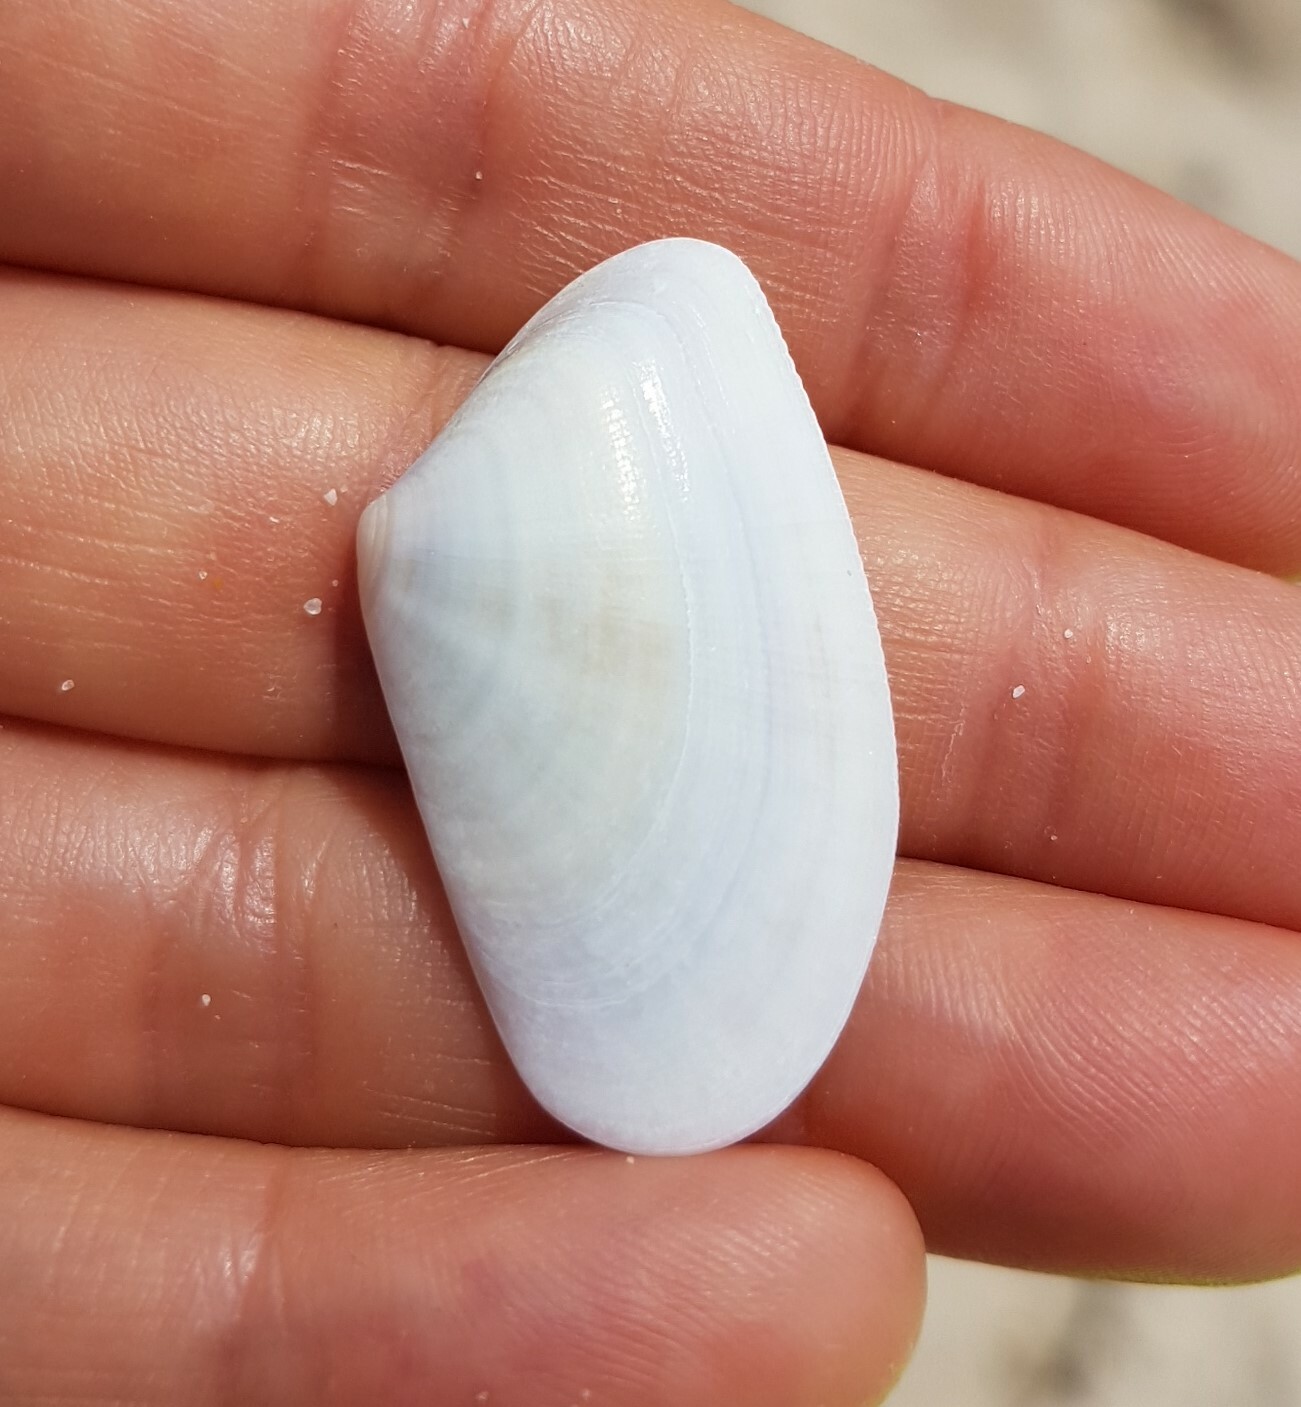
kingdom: Animalia
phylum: Mollusca
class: Bivalvia
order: Cardiida
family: Donacidae
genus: Donax
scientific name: Donax trunculus
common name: Truncate donax
